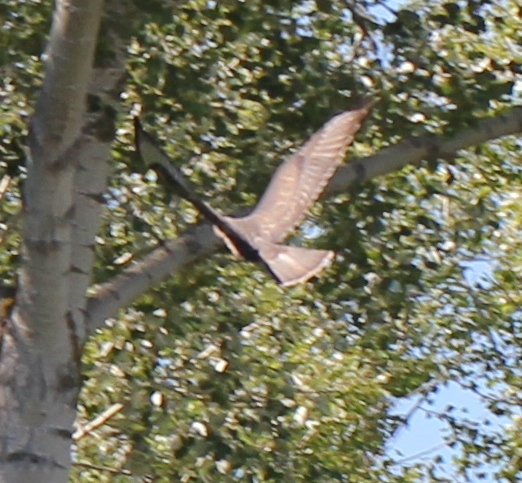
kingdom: Animalia
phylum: Chordata
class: Aves
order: Accipitriformes
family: Accipitridae
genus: Buteo
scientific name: Buteo buteo
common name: Common buzzard
